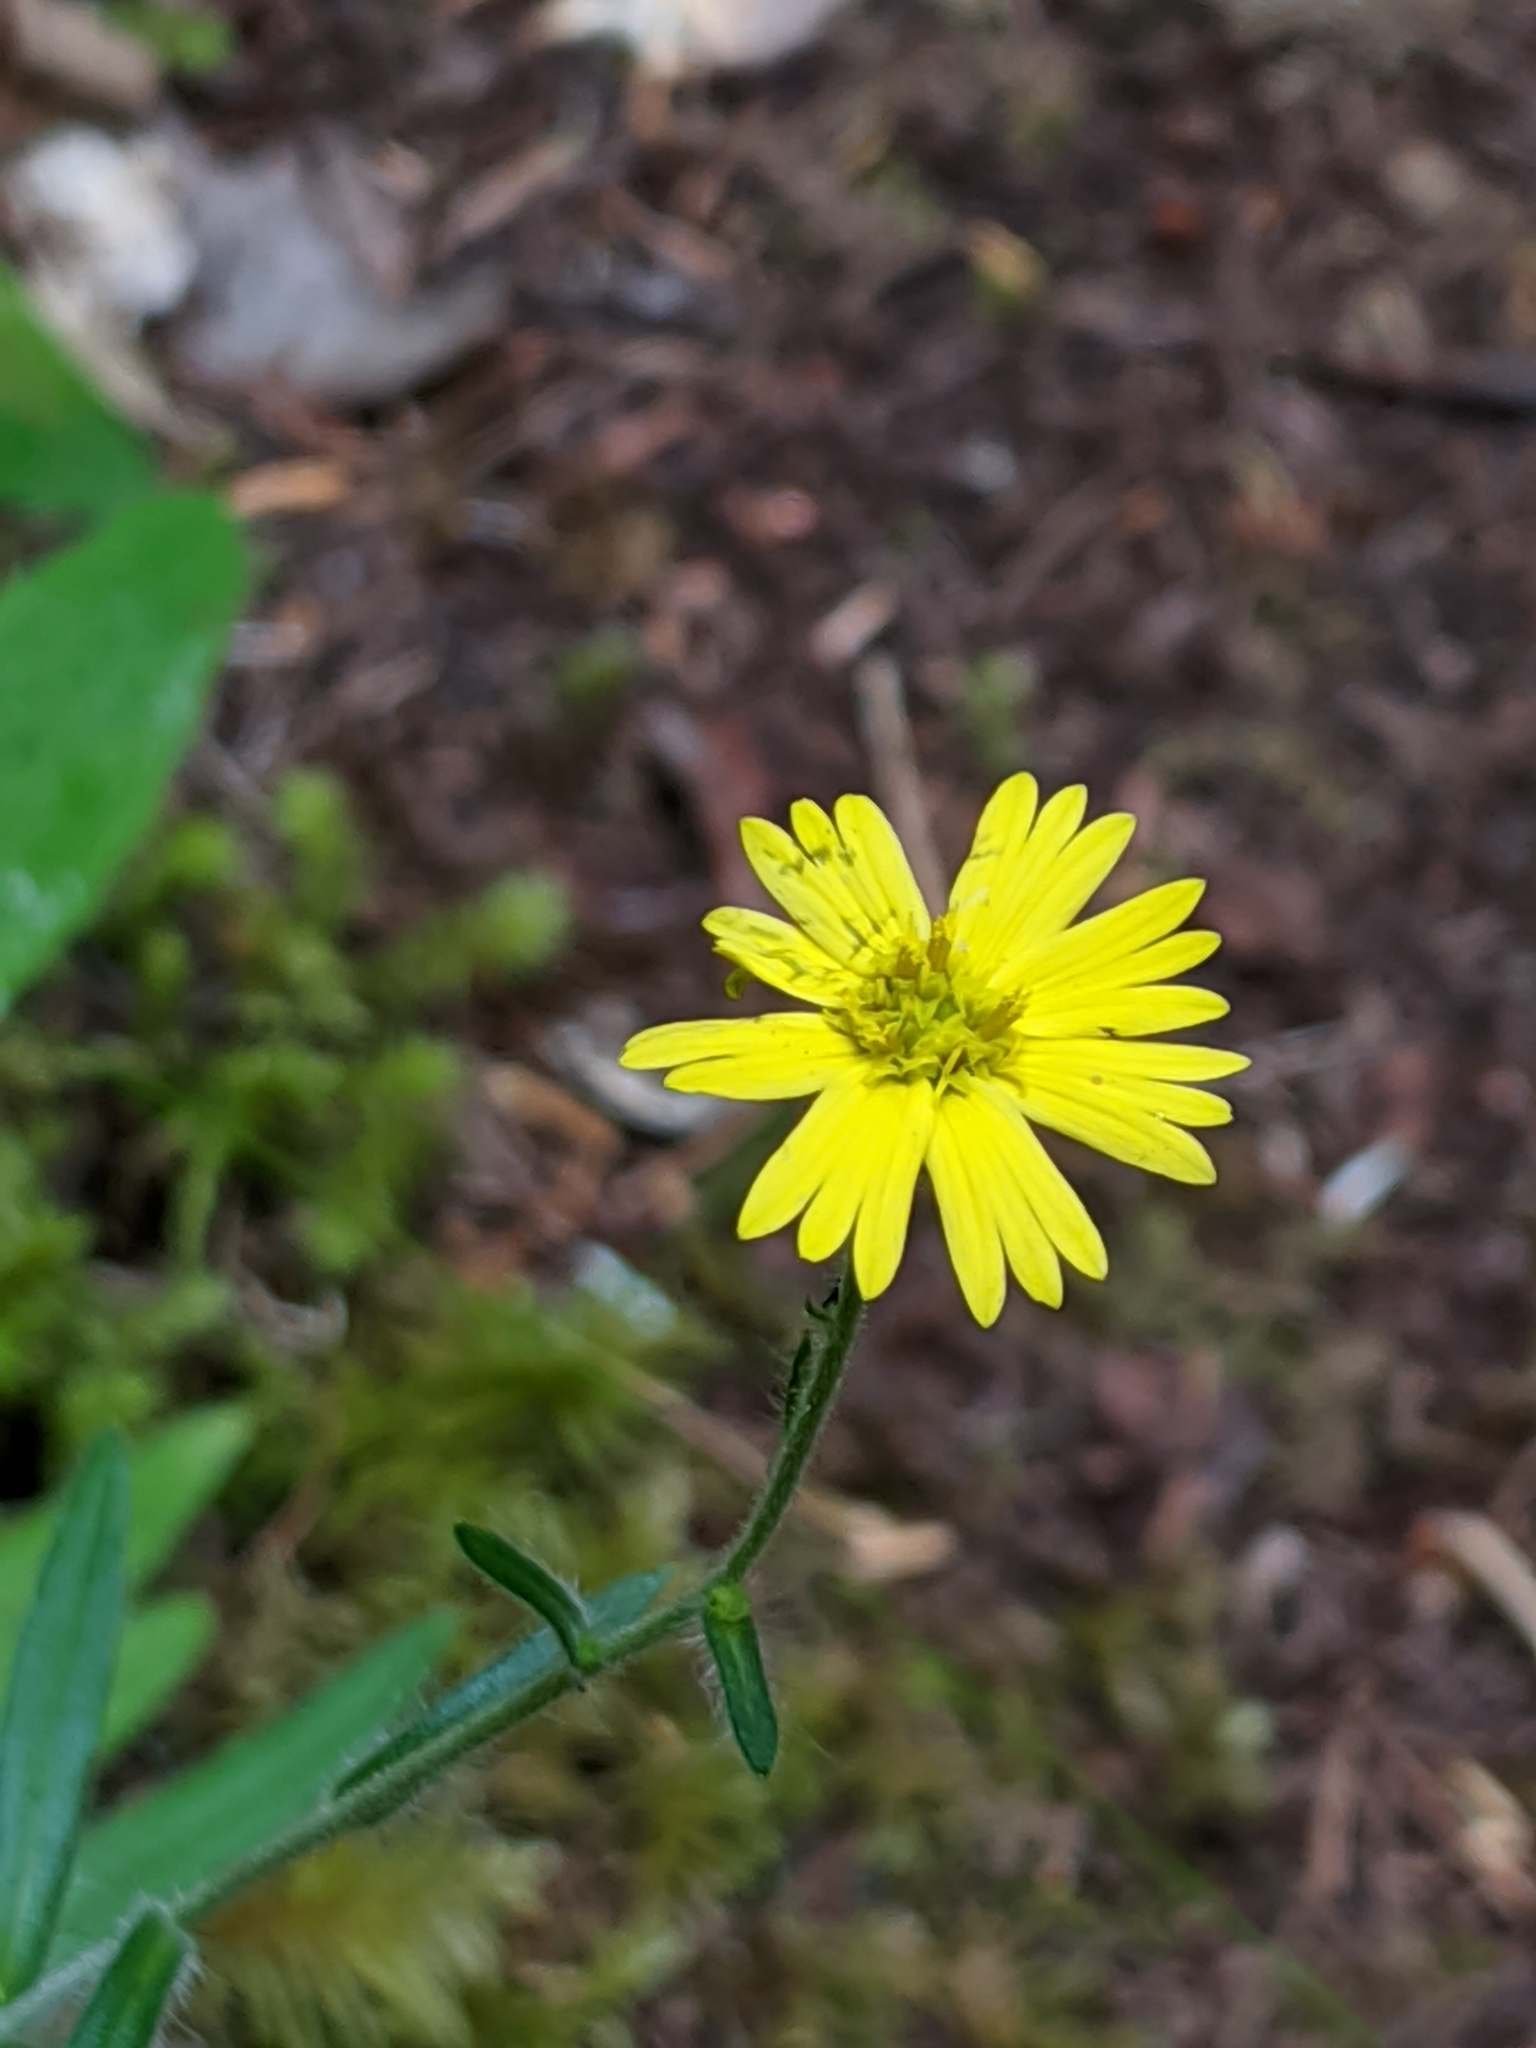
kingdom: Plantae
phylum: Tracheophyta
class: Magnoliopsida
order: Asterales
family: Asteraceae
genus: Anisocarpus
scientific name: Anisocarpus madioides
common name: Woodland madia
